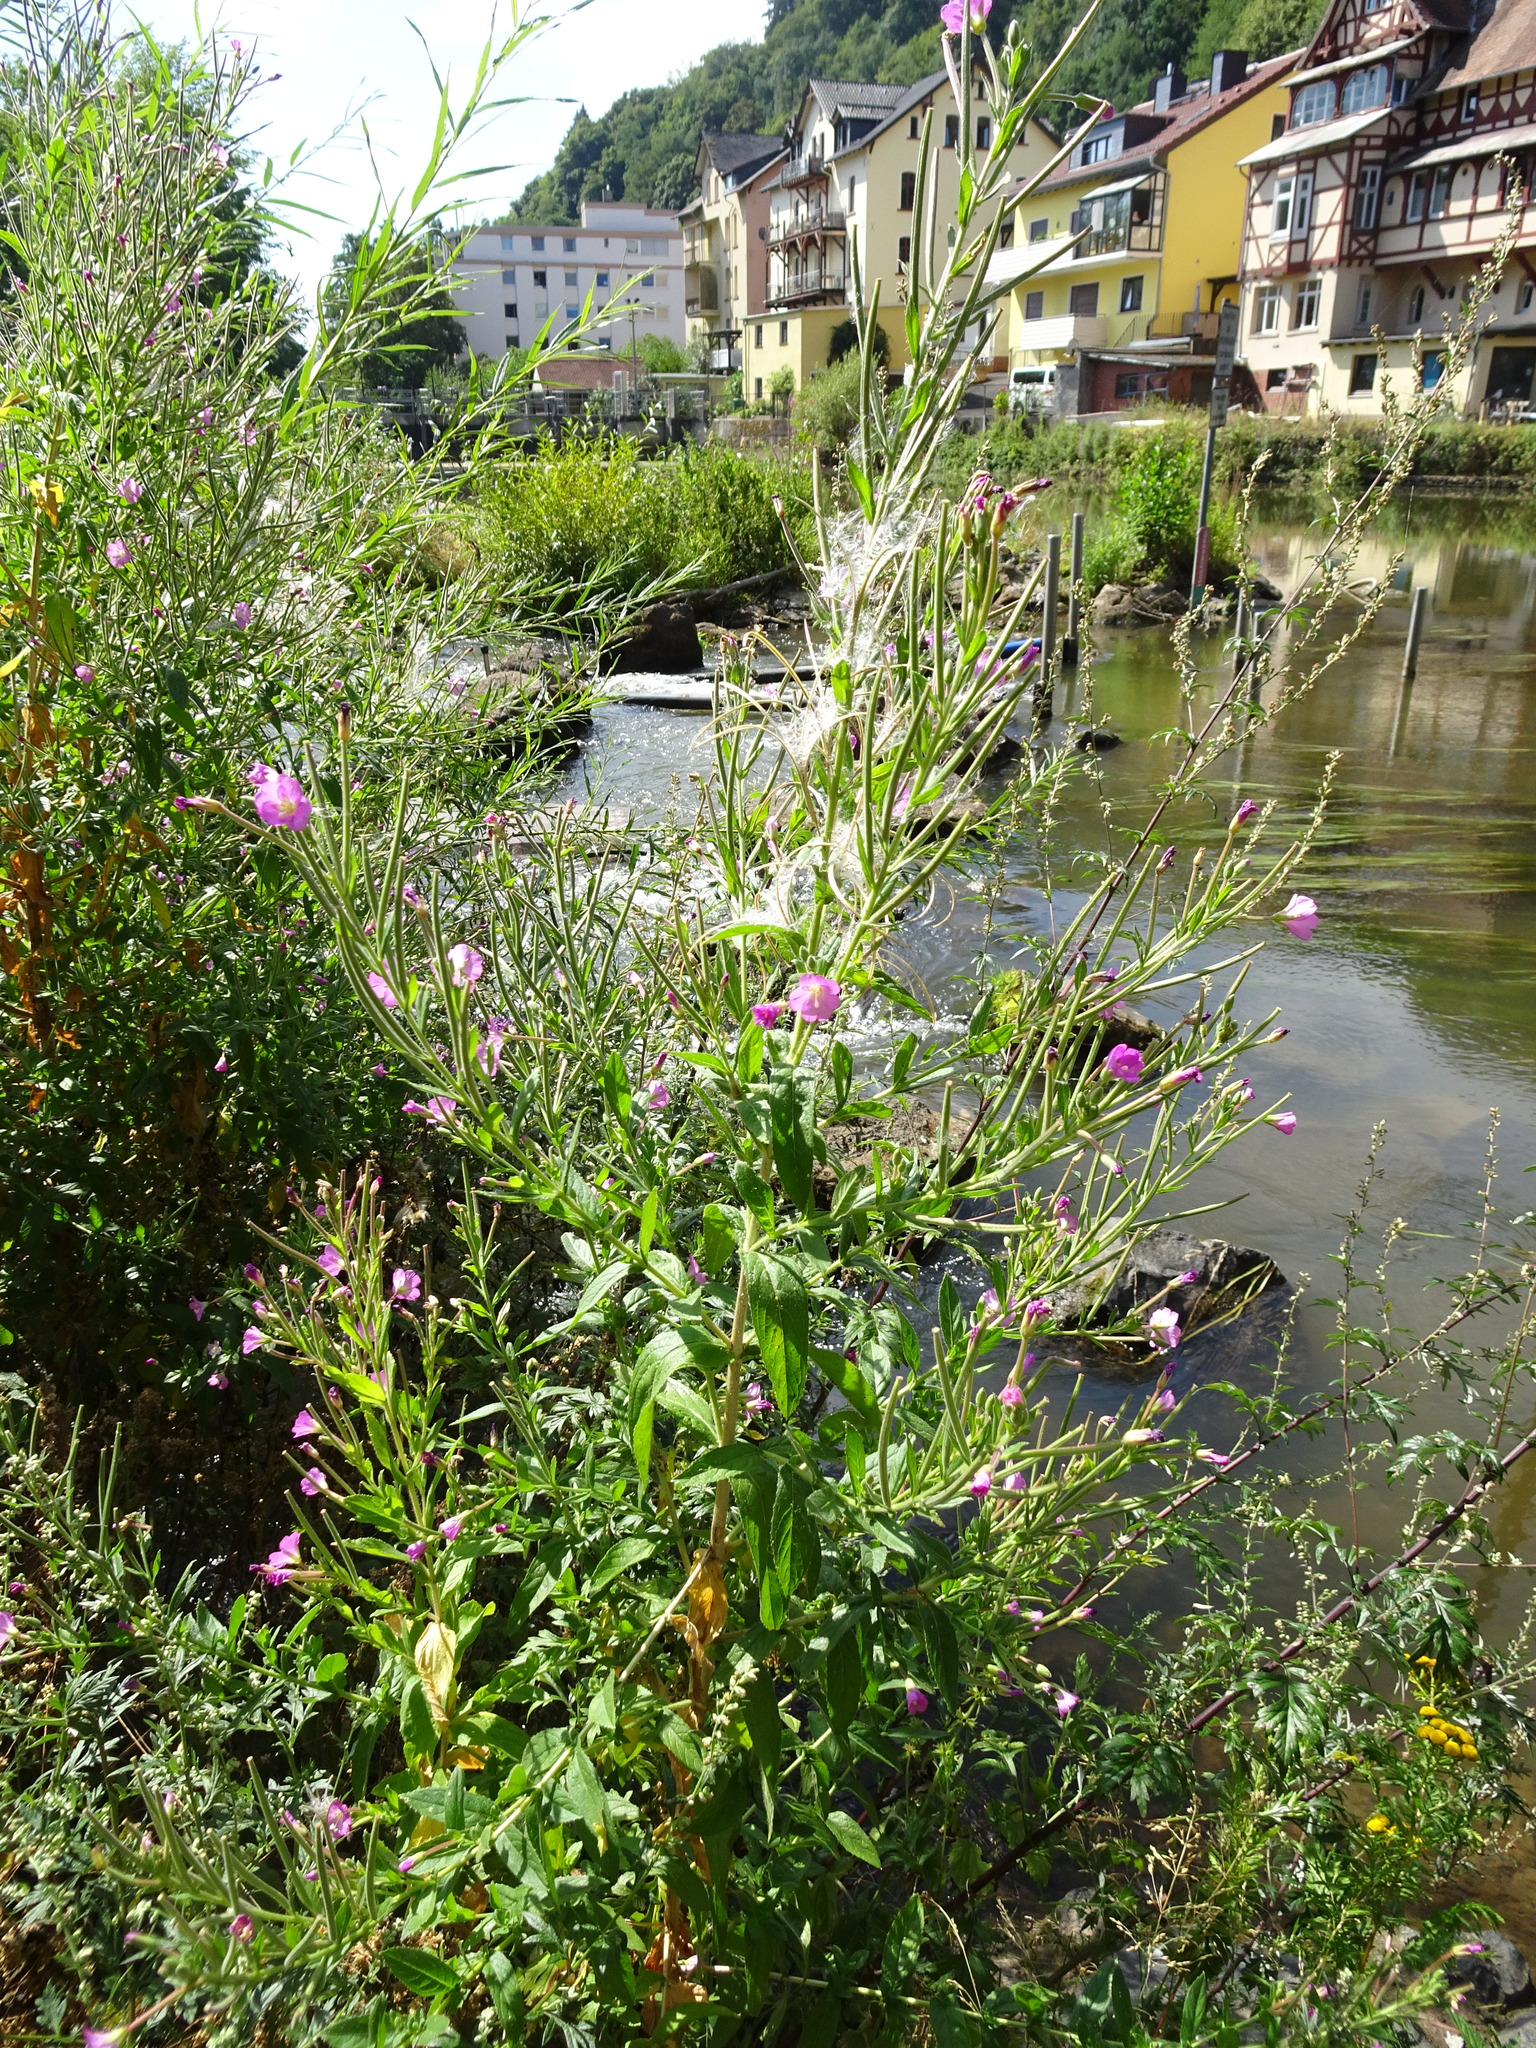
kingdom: Plantae
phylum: Tracheophyta
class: Magnoliopsida
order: Myrtales
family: Onagraceae
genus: Epilobium
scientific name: Epilobium hirsutum
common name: Great willowherb
